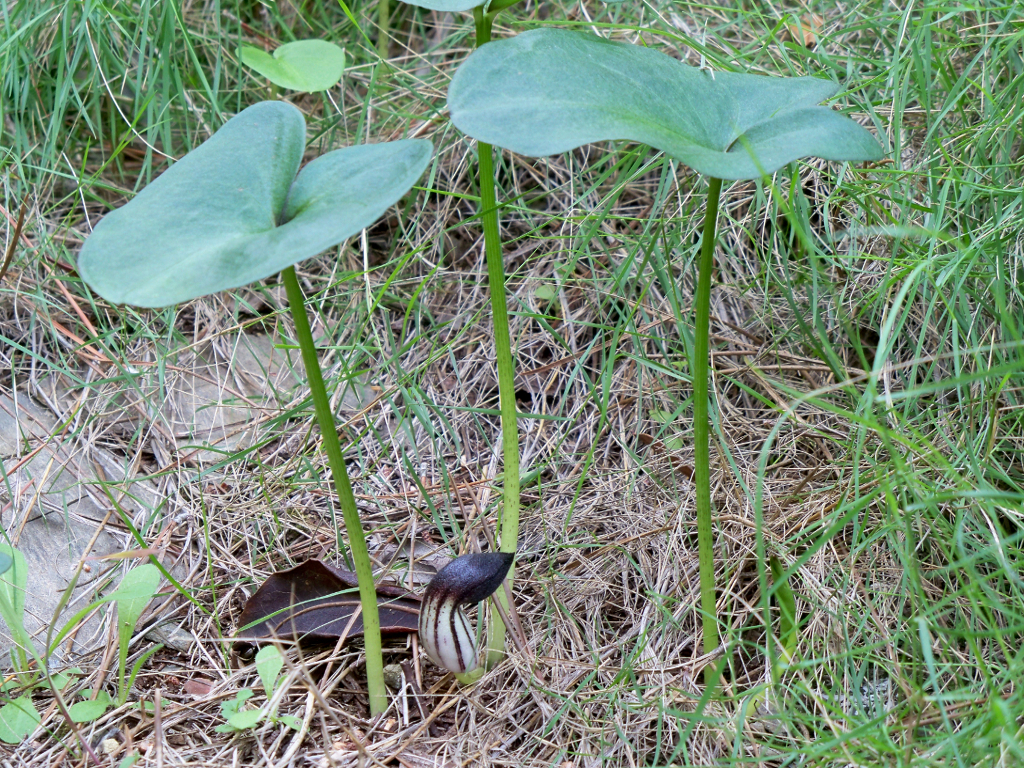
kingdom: Plantae
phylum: Tracheophyta
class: Liliopsida
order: Alismatales
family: Araceae
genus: Arisarum
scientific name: Arisarum simorrhinum
